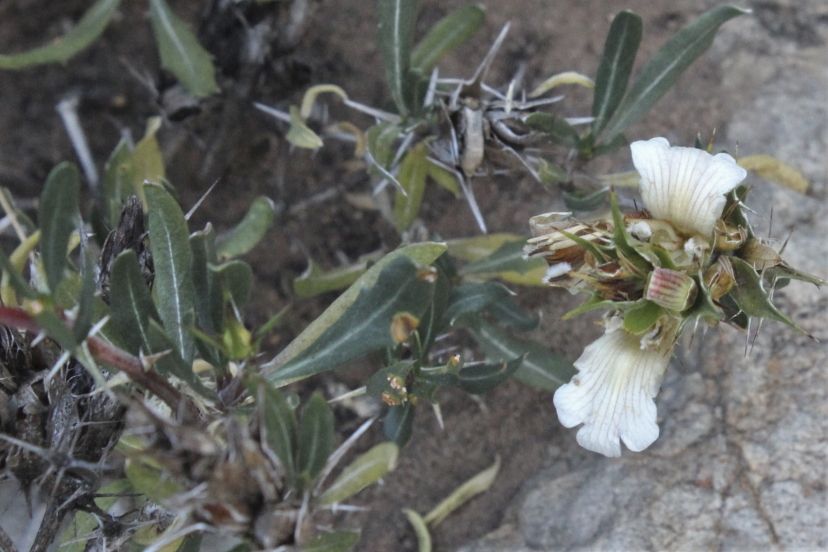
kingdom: Plantae
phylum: Tracheophyta
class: Magnoliopsida
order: Lamiales
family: Acanthaceae
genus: Blepharis
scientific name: Blepharis capensis
